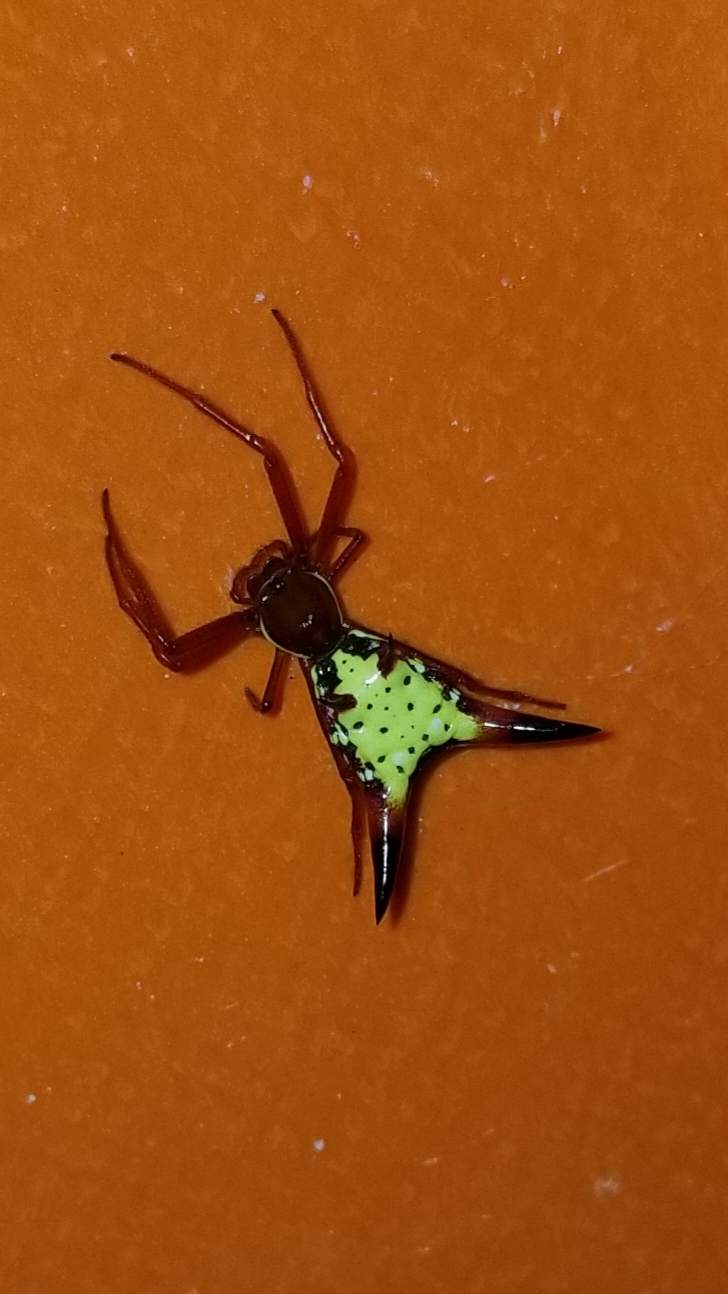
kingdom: Animalia
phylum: Arthropoda
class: Arachnida
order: Araneae
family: Araneidae
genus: Micrathena
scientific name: Micrathena sagittata
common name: Orb weavers
